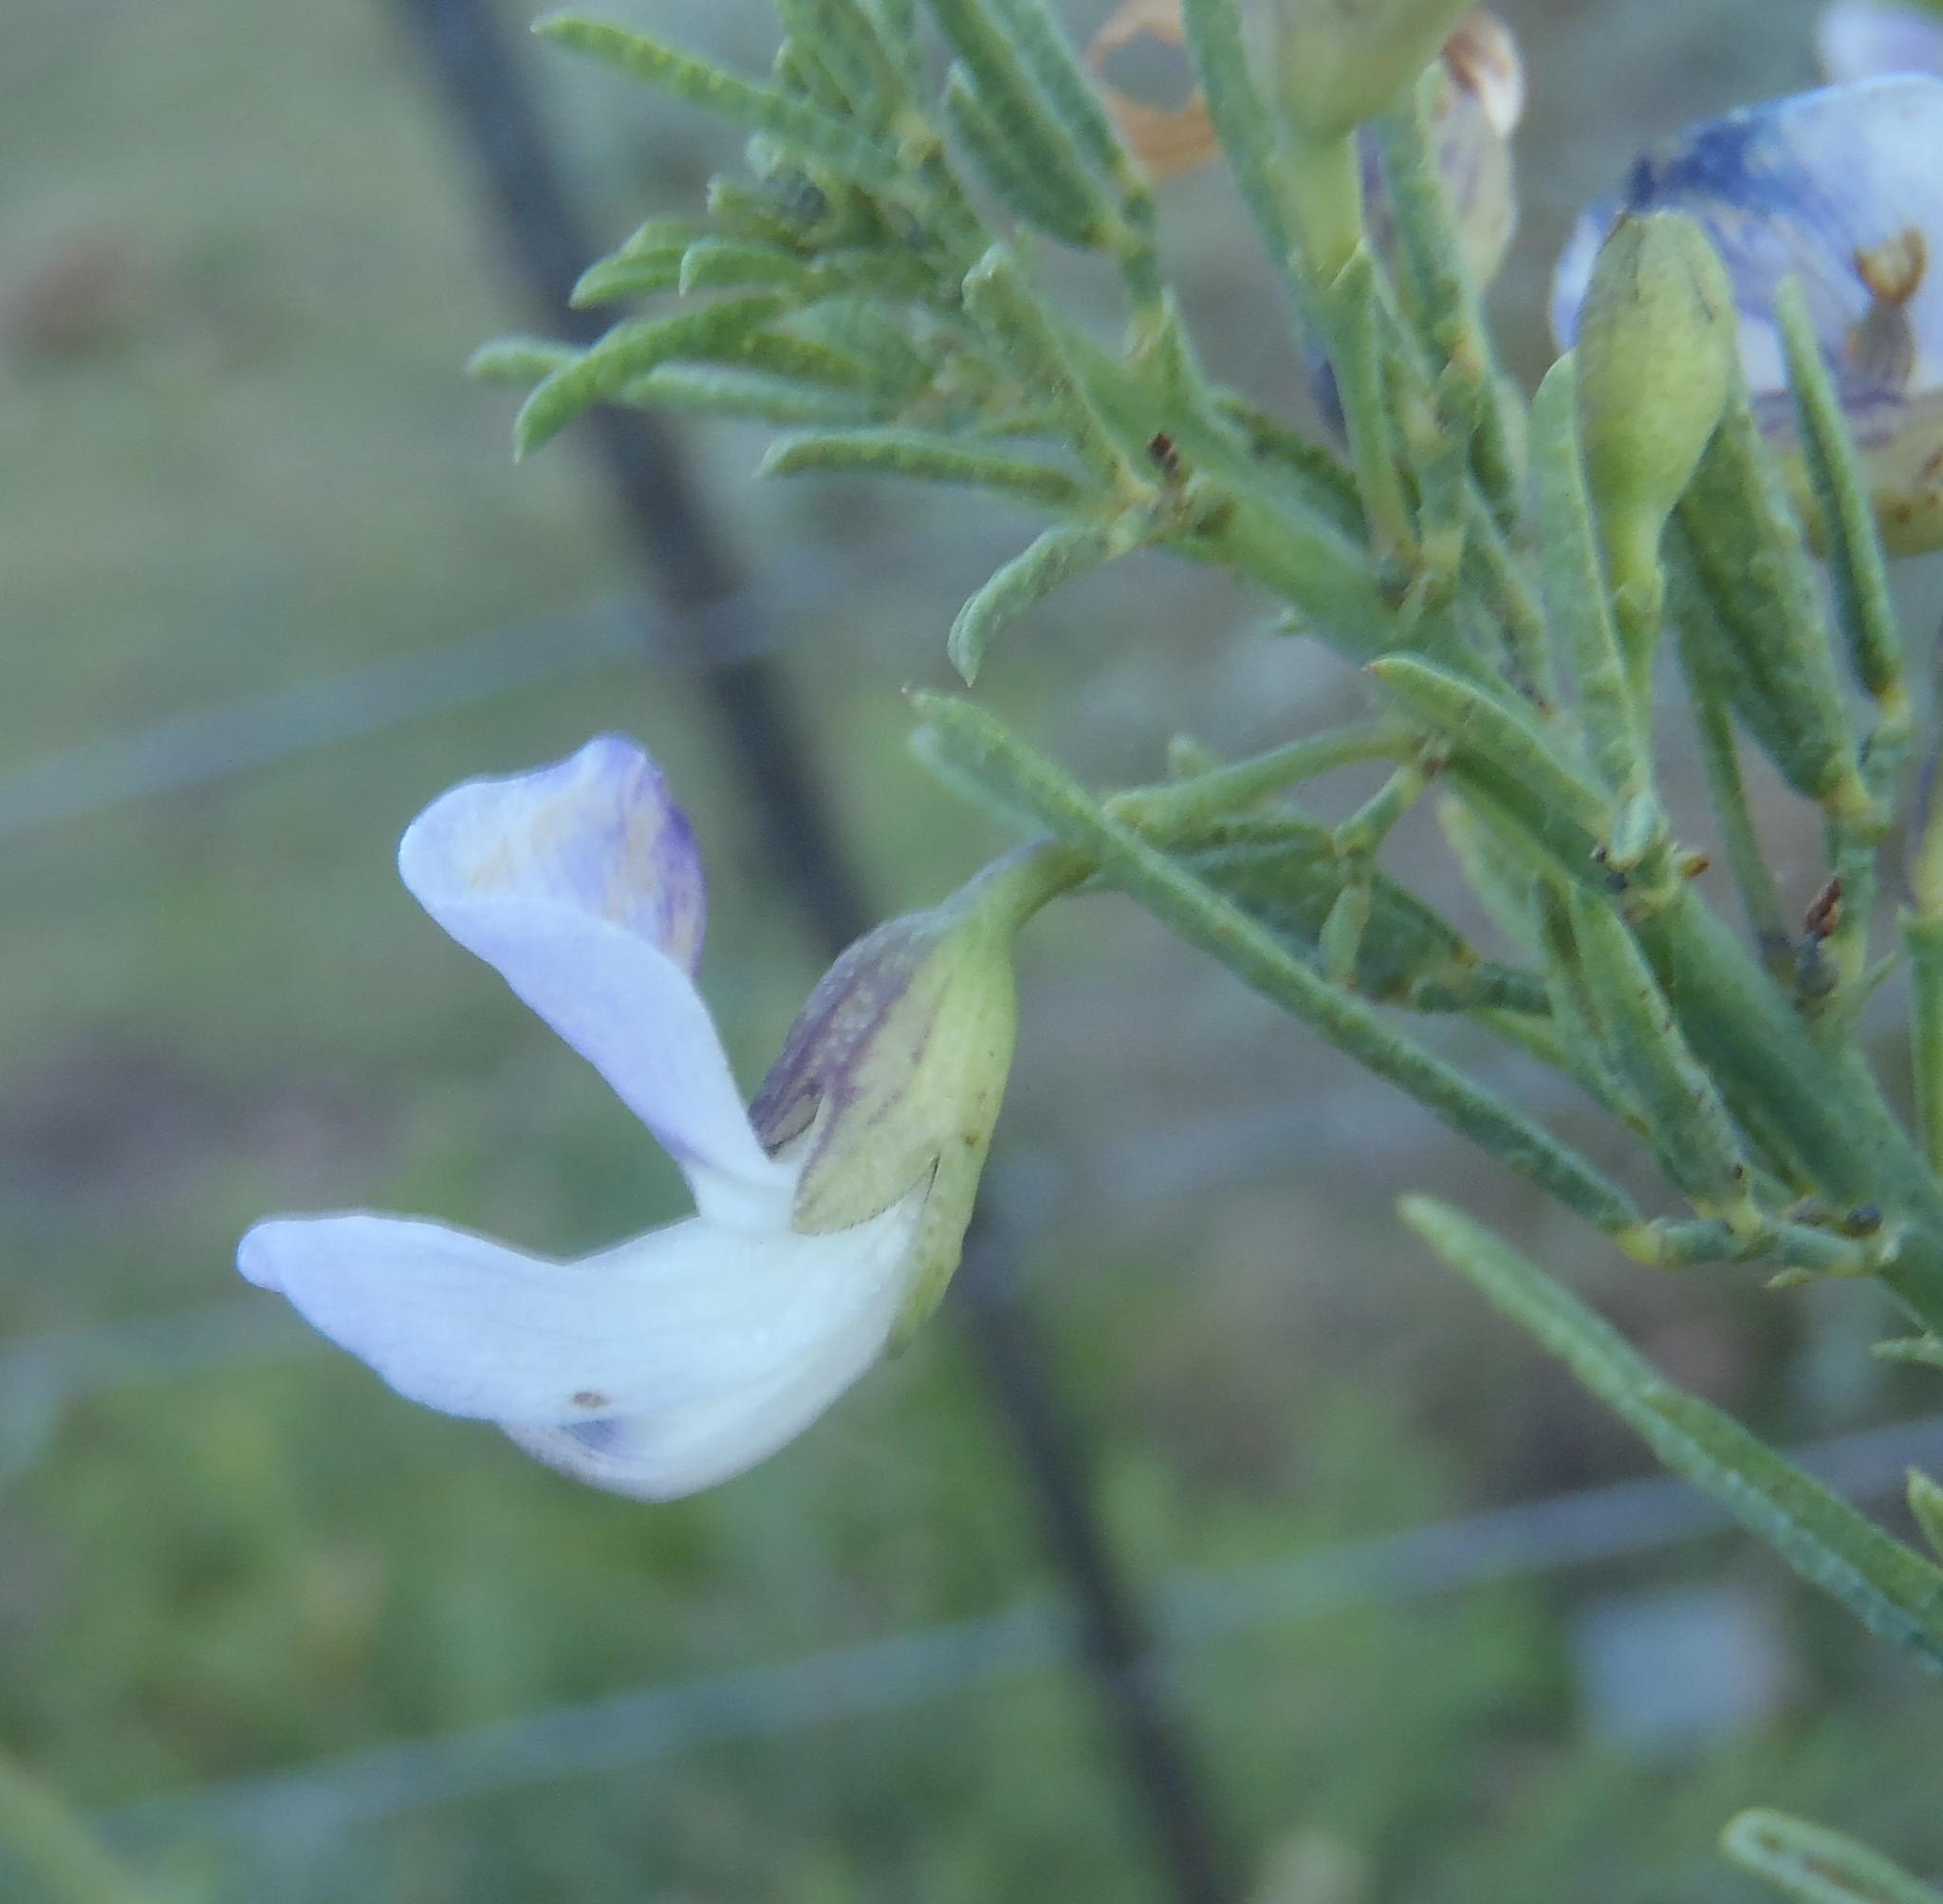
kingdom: Plantae
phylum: Tracheophyta
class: Magnoliopsida
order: Fabales
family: Fabaceae
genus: Psoralea
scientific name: Psoralea axillaris
